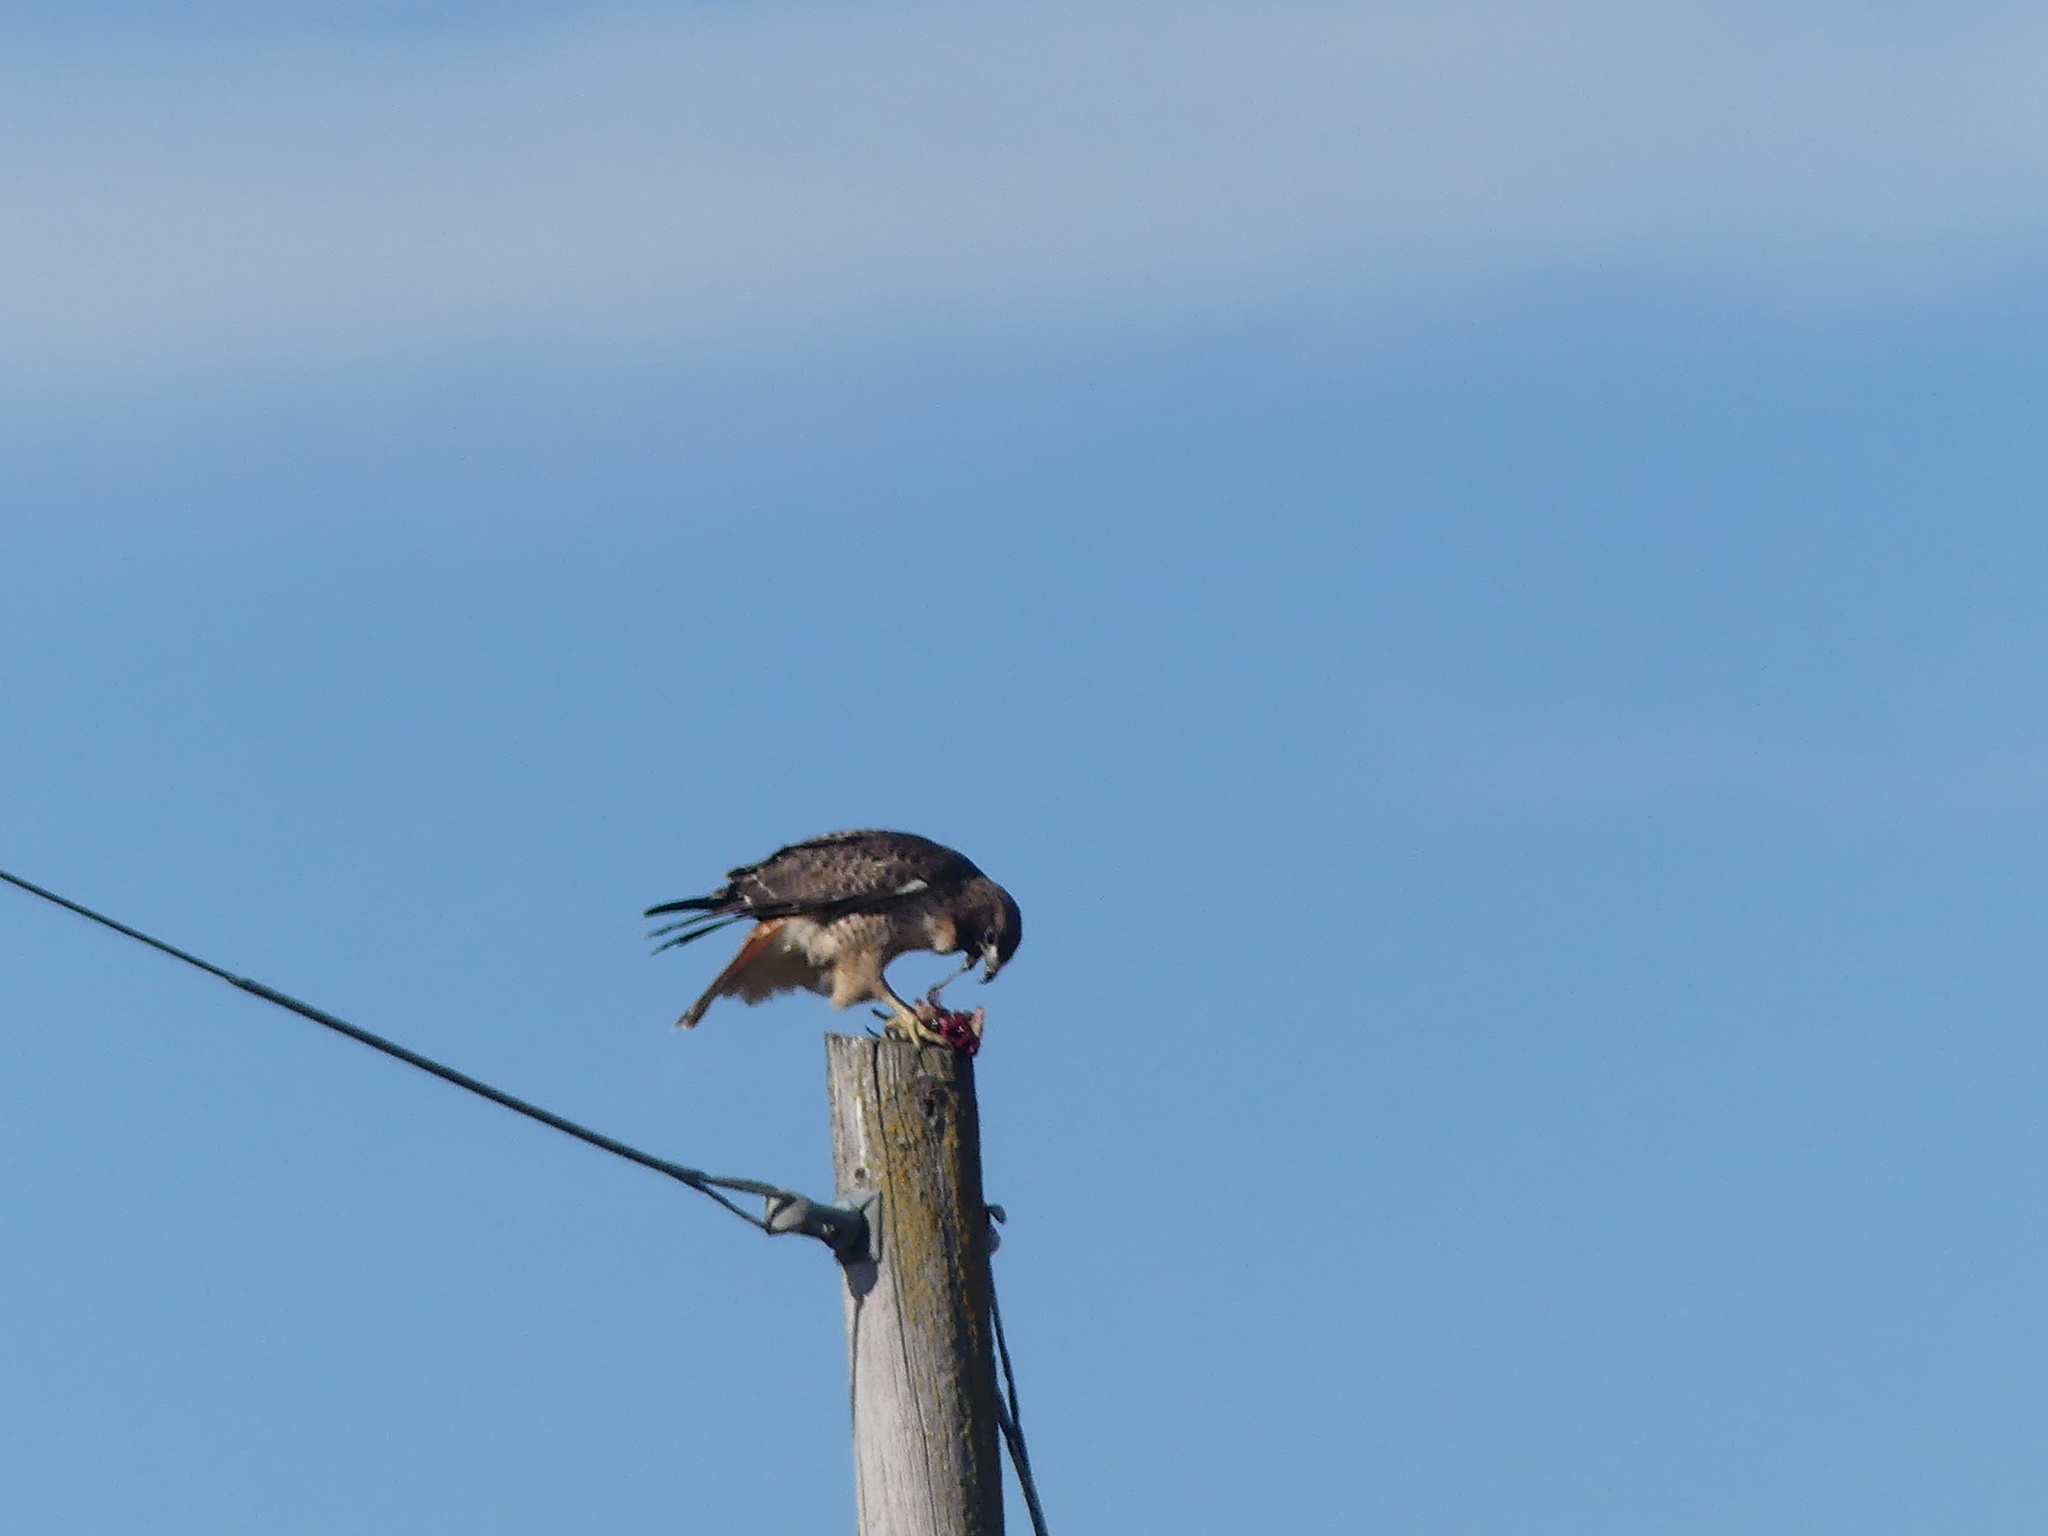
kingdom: Animalia
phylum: Chordata
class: Aves
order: Accipitriformes
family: Accipitridae
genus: Buteo
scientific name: Buteo jamaicensis
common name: Red-tailed hawk
